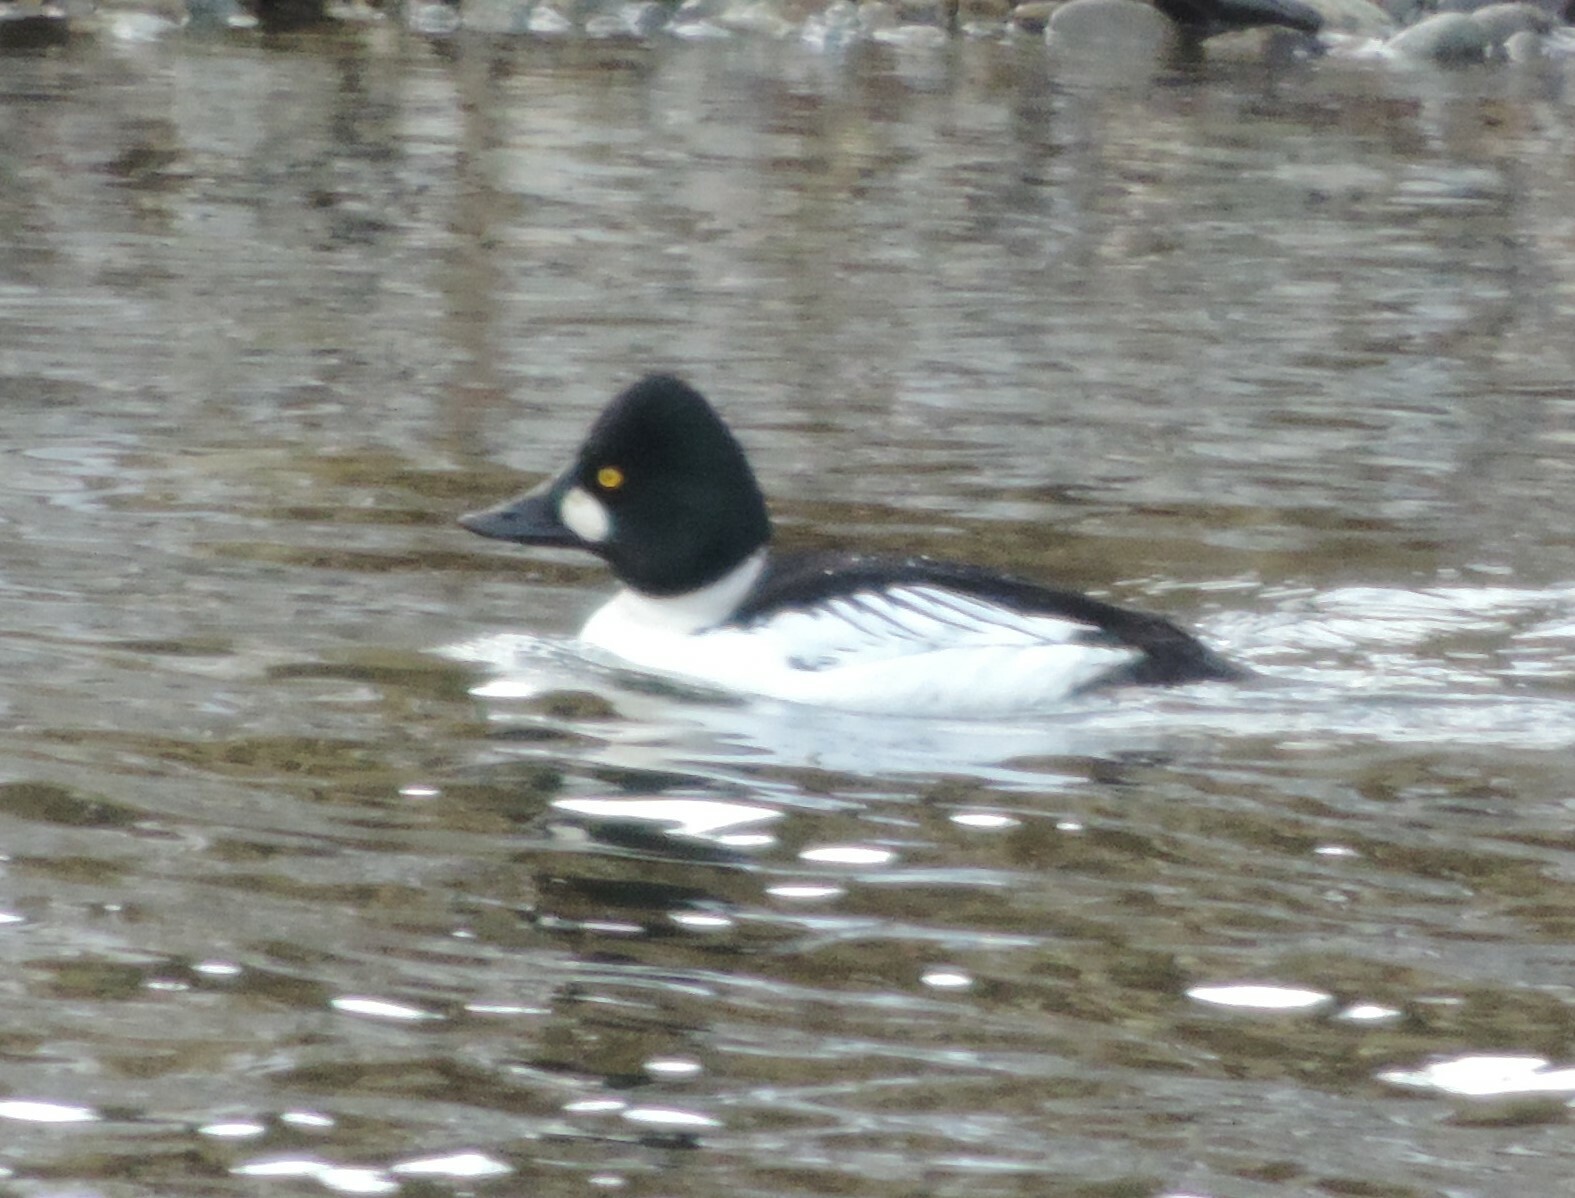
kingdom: Animalia
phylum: Chordata
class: Aves
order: Anseriformes
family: Anatidae
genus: Bucephala
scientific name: Bucephala clangula
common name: Common goldeneye
